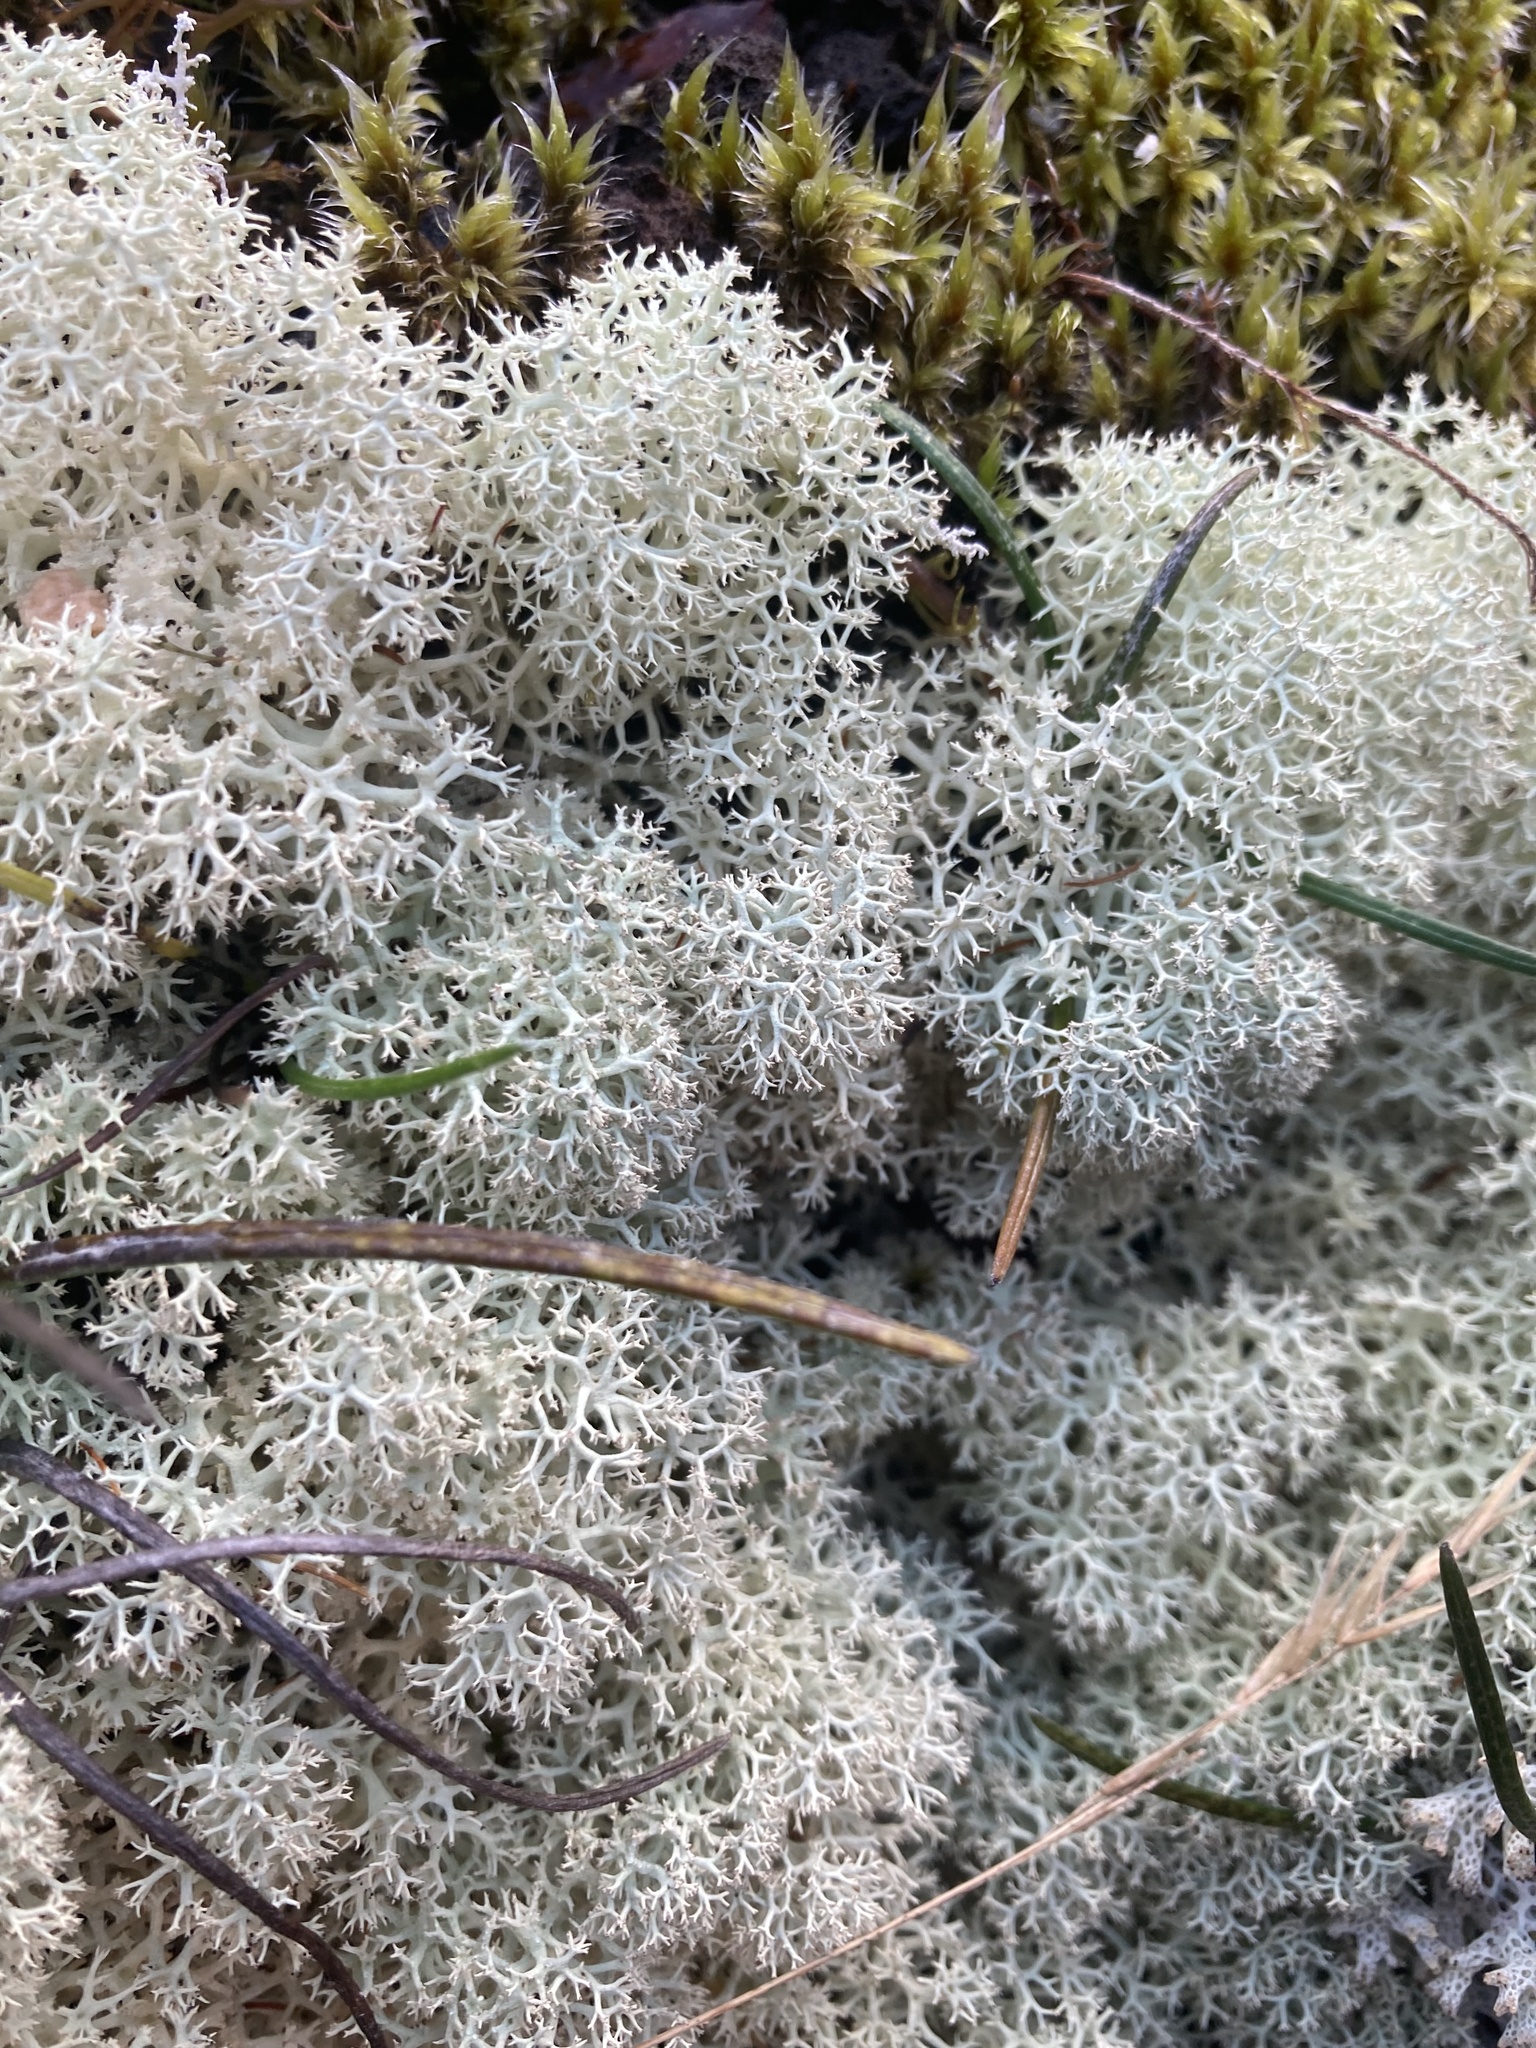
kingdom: Fungi
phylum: Ascomycota
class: Lecanoromycetes
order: Lecanorales
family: Cladoniaceae
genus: Cladonia
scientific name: Cladonia confusa
